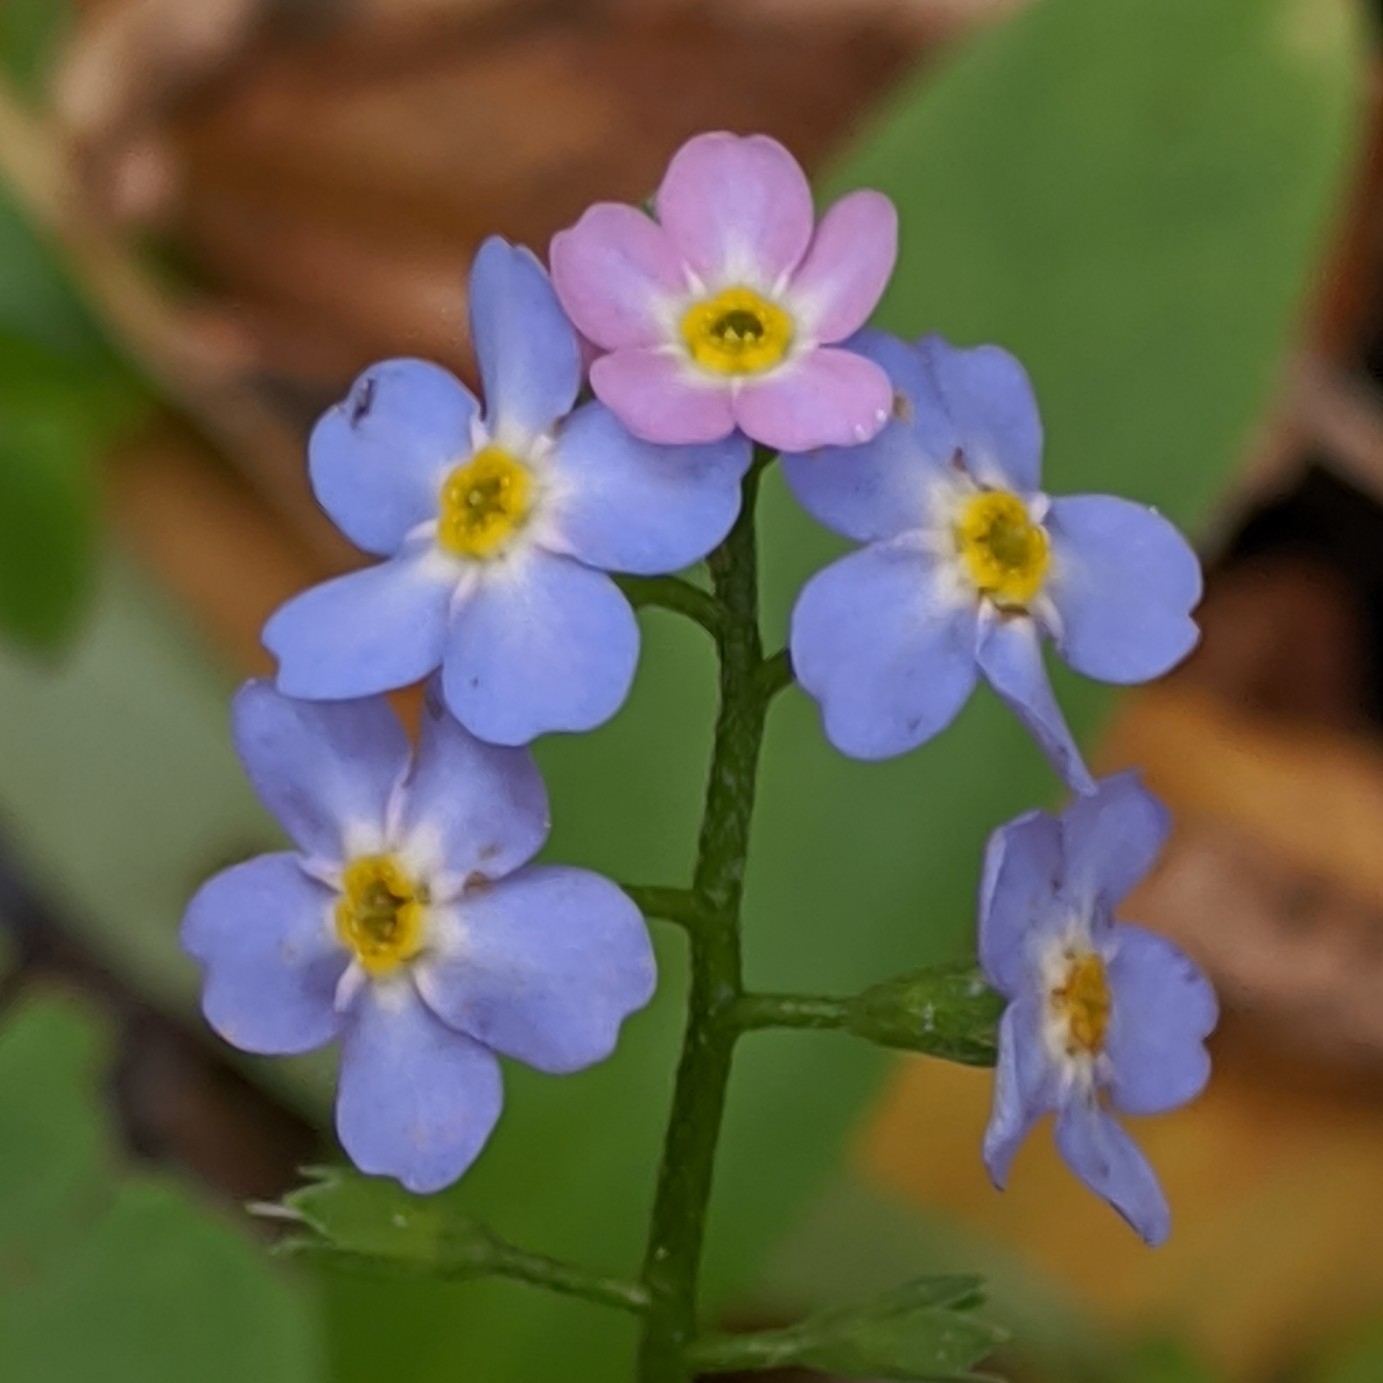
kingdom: Plantae
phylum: Tracheophyta
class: Magnoliopsida
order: Boraginales
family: Boraginaceae
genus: Myosotis
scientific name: Myosotis scorpioides
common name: Water forget-me-not
